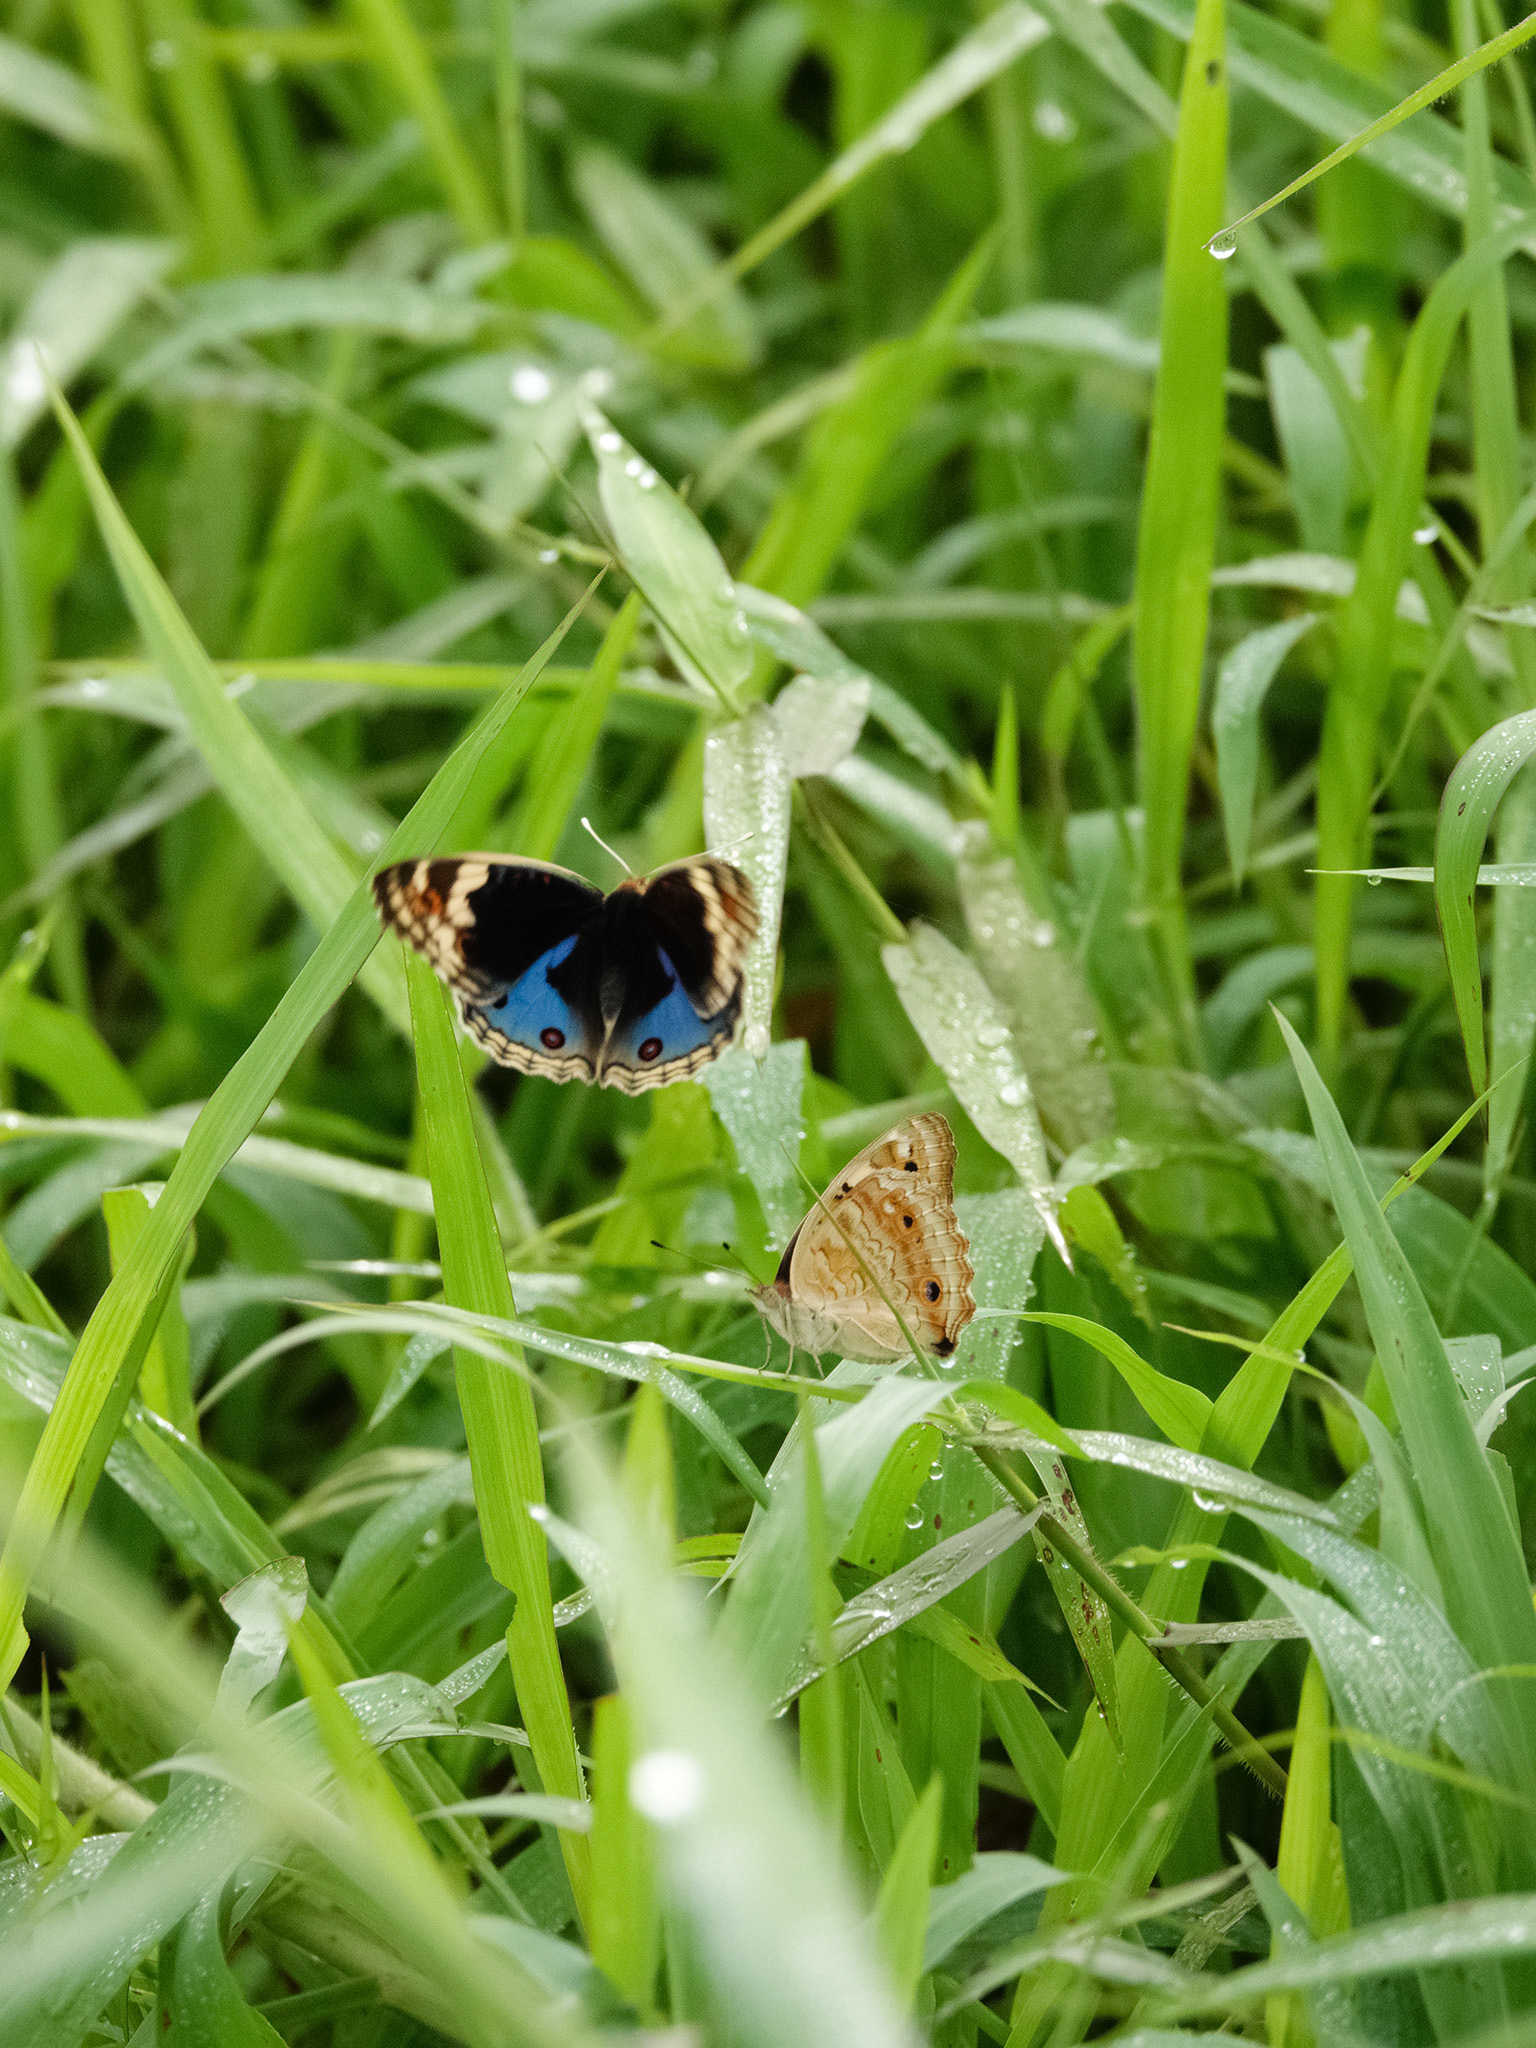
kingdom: Animalia
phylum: Arthropoda
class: Insecta
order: Lepidoptera
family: Nymphalidae
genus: Junonia
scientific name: Junonia orithya
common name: Blue pansy
